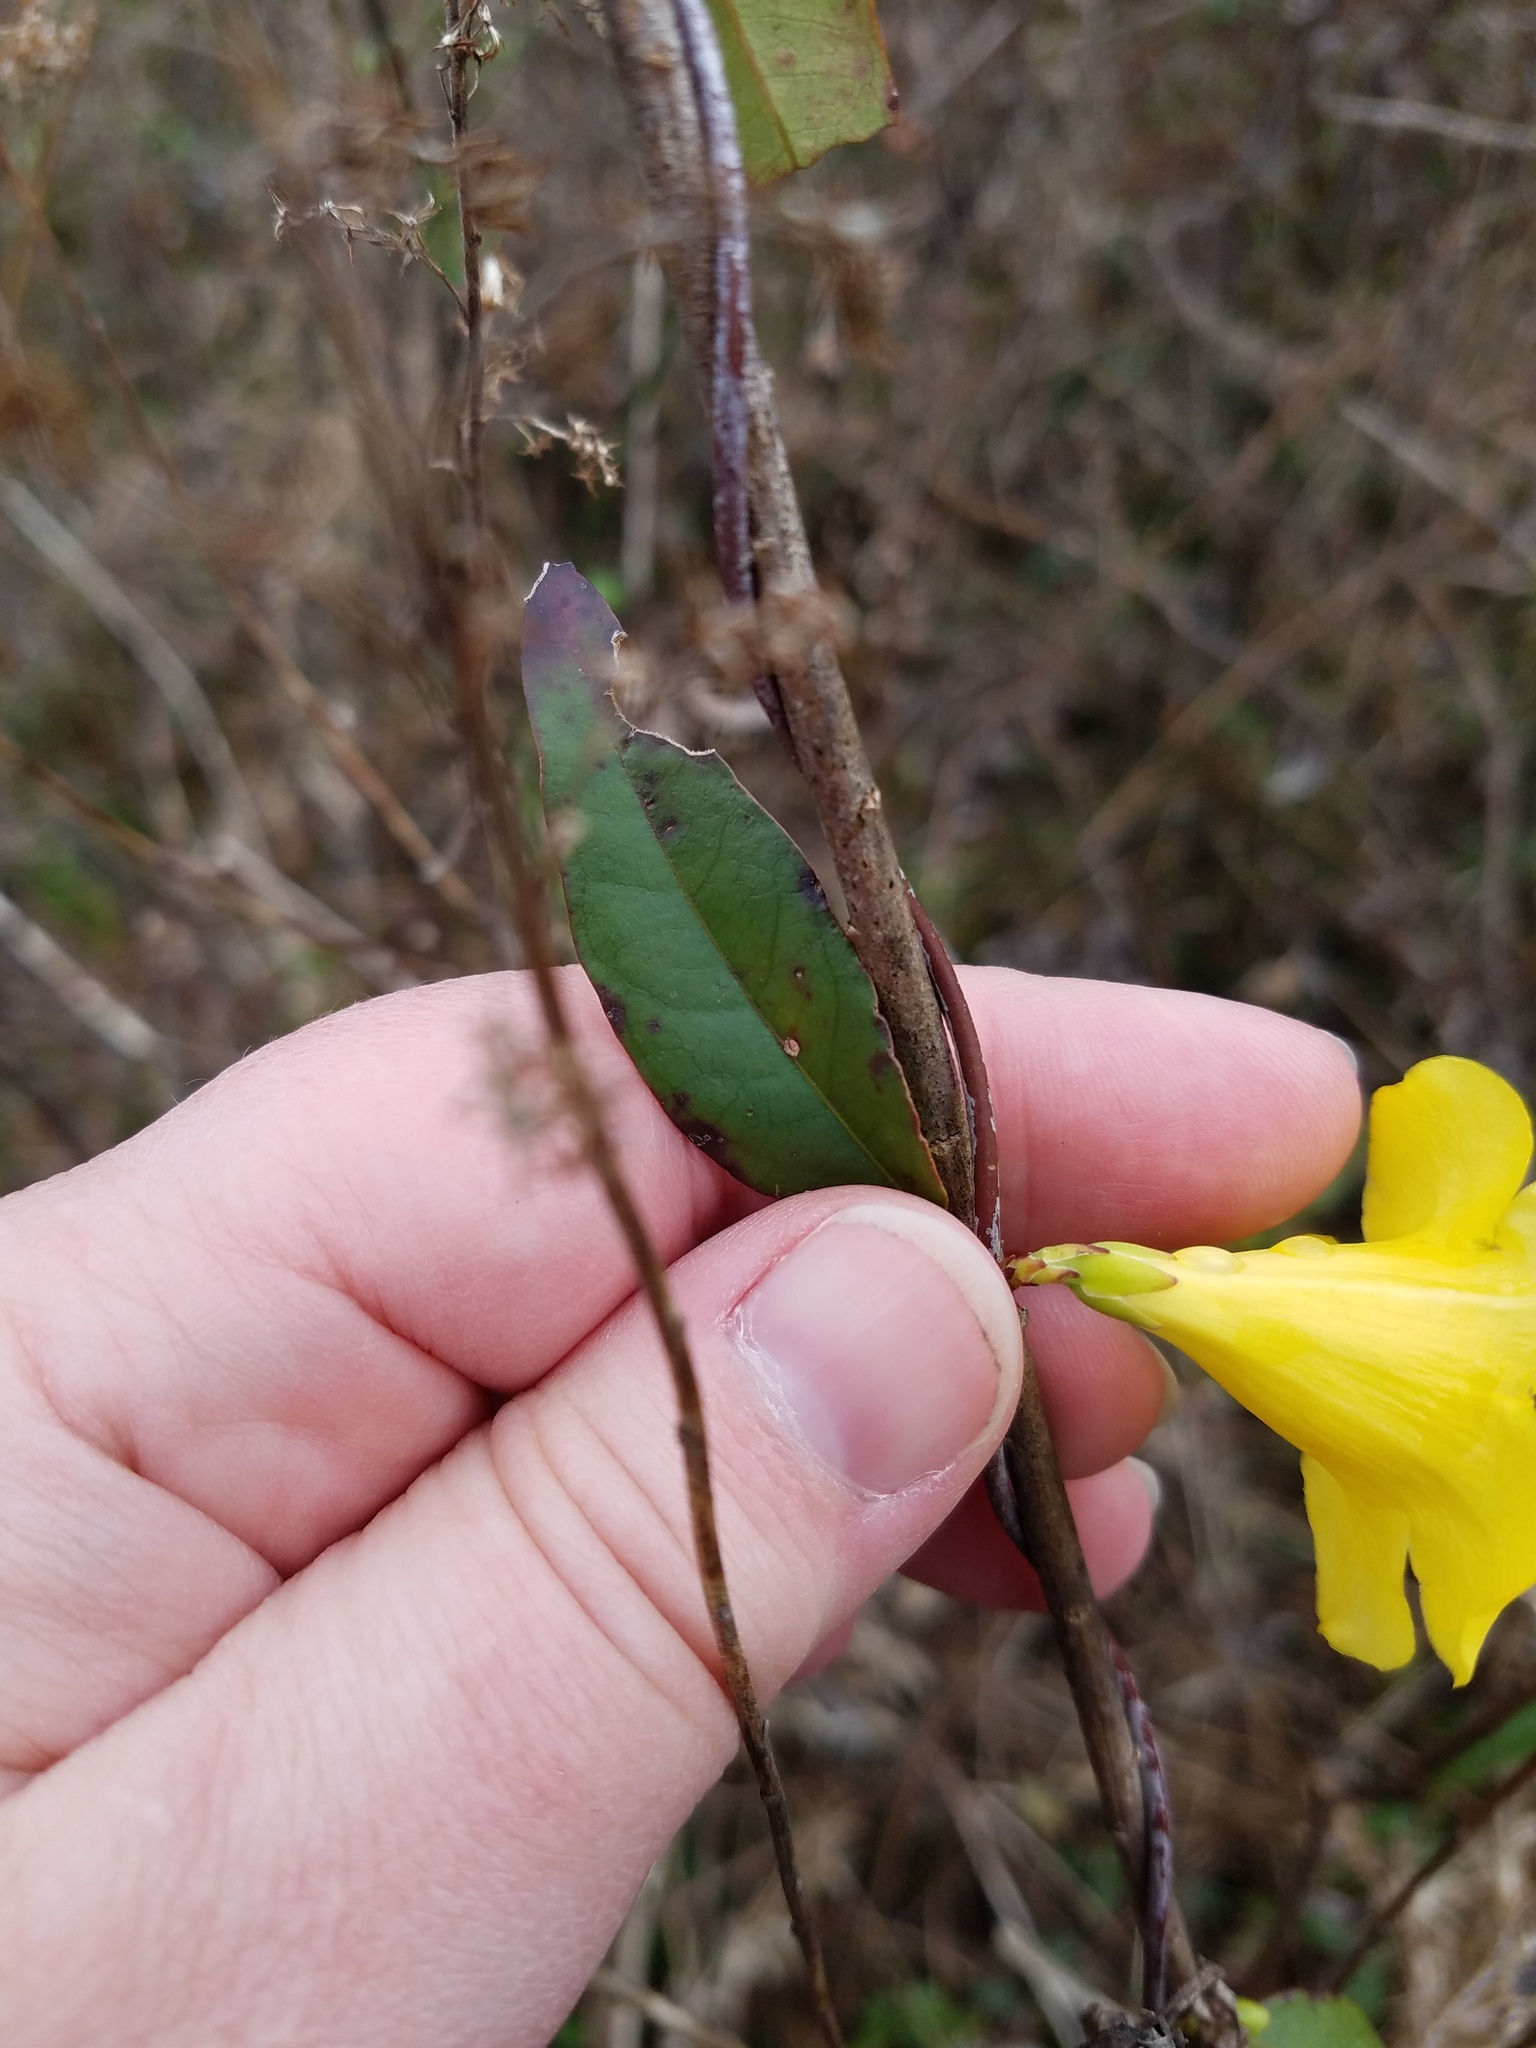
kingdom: Plantae
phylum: Tracheophyta
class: Magnoliopsida
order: Gentianales
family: Gelsemiaceae
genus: Gelsemium
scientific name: Gelsemium sempervirens
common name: Carolina-jasmine
